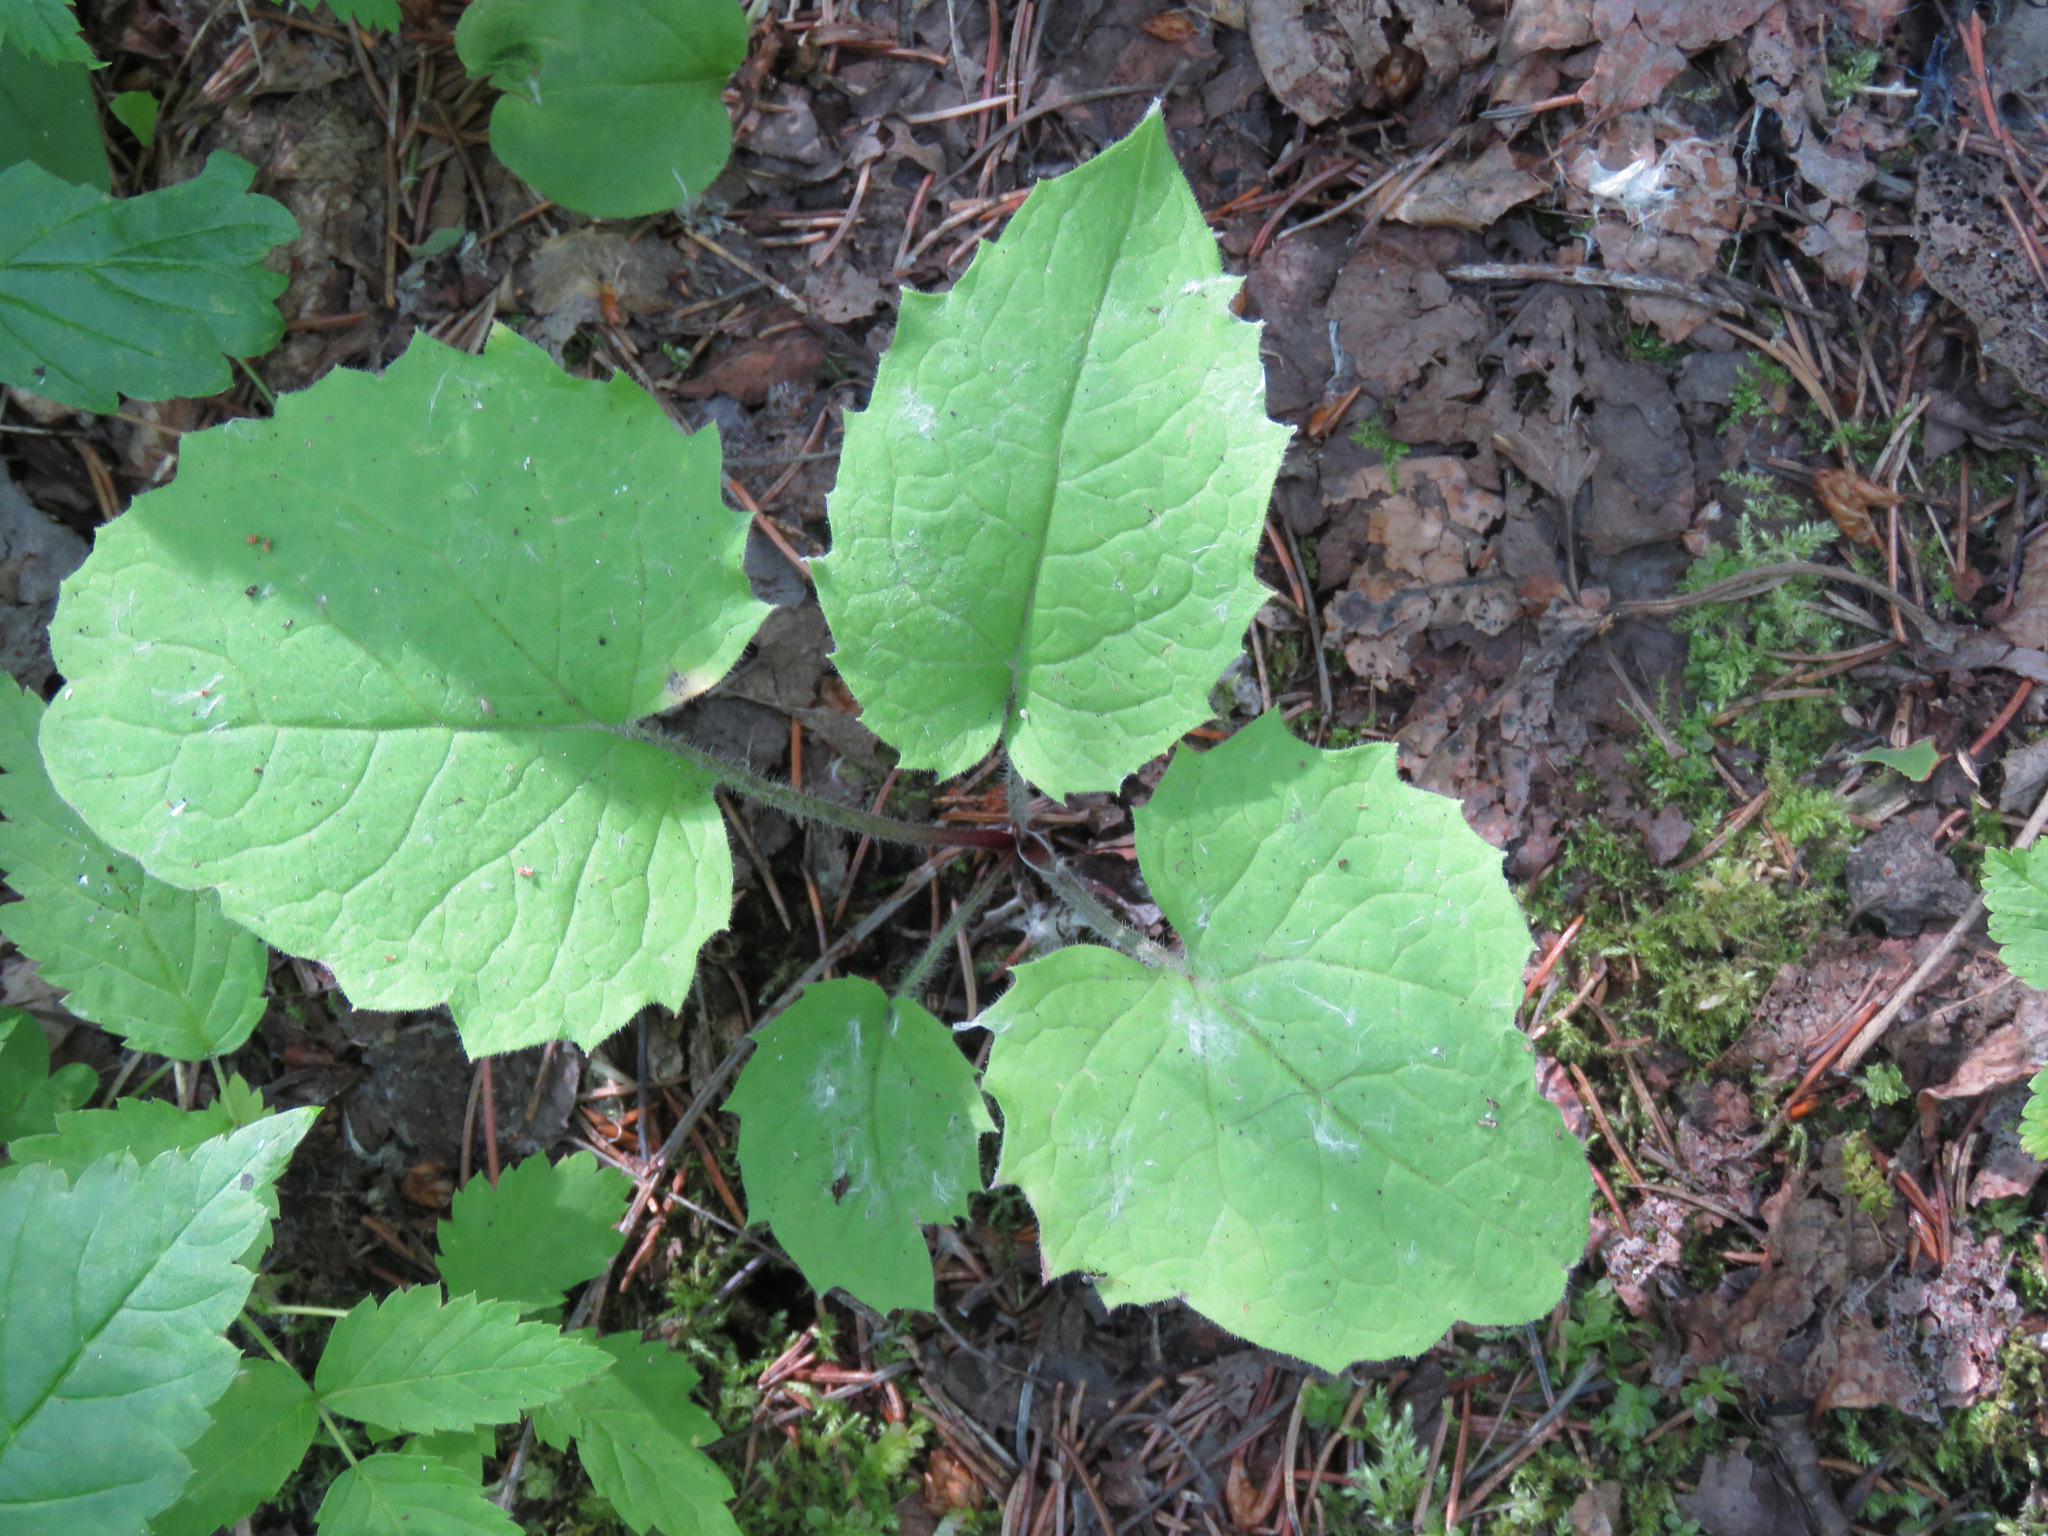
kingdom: Plantae
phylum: Tracheophyta
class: Magnoliopsida
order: Asterales
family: Asteraceae
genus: Arnica
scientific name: Arnica cordifolia
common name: Heart-leaf arnica
